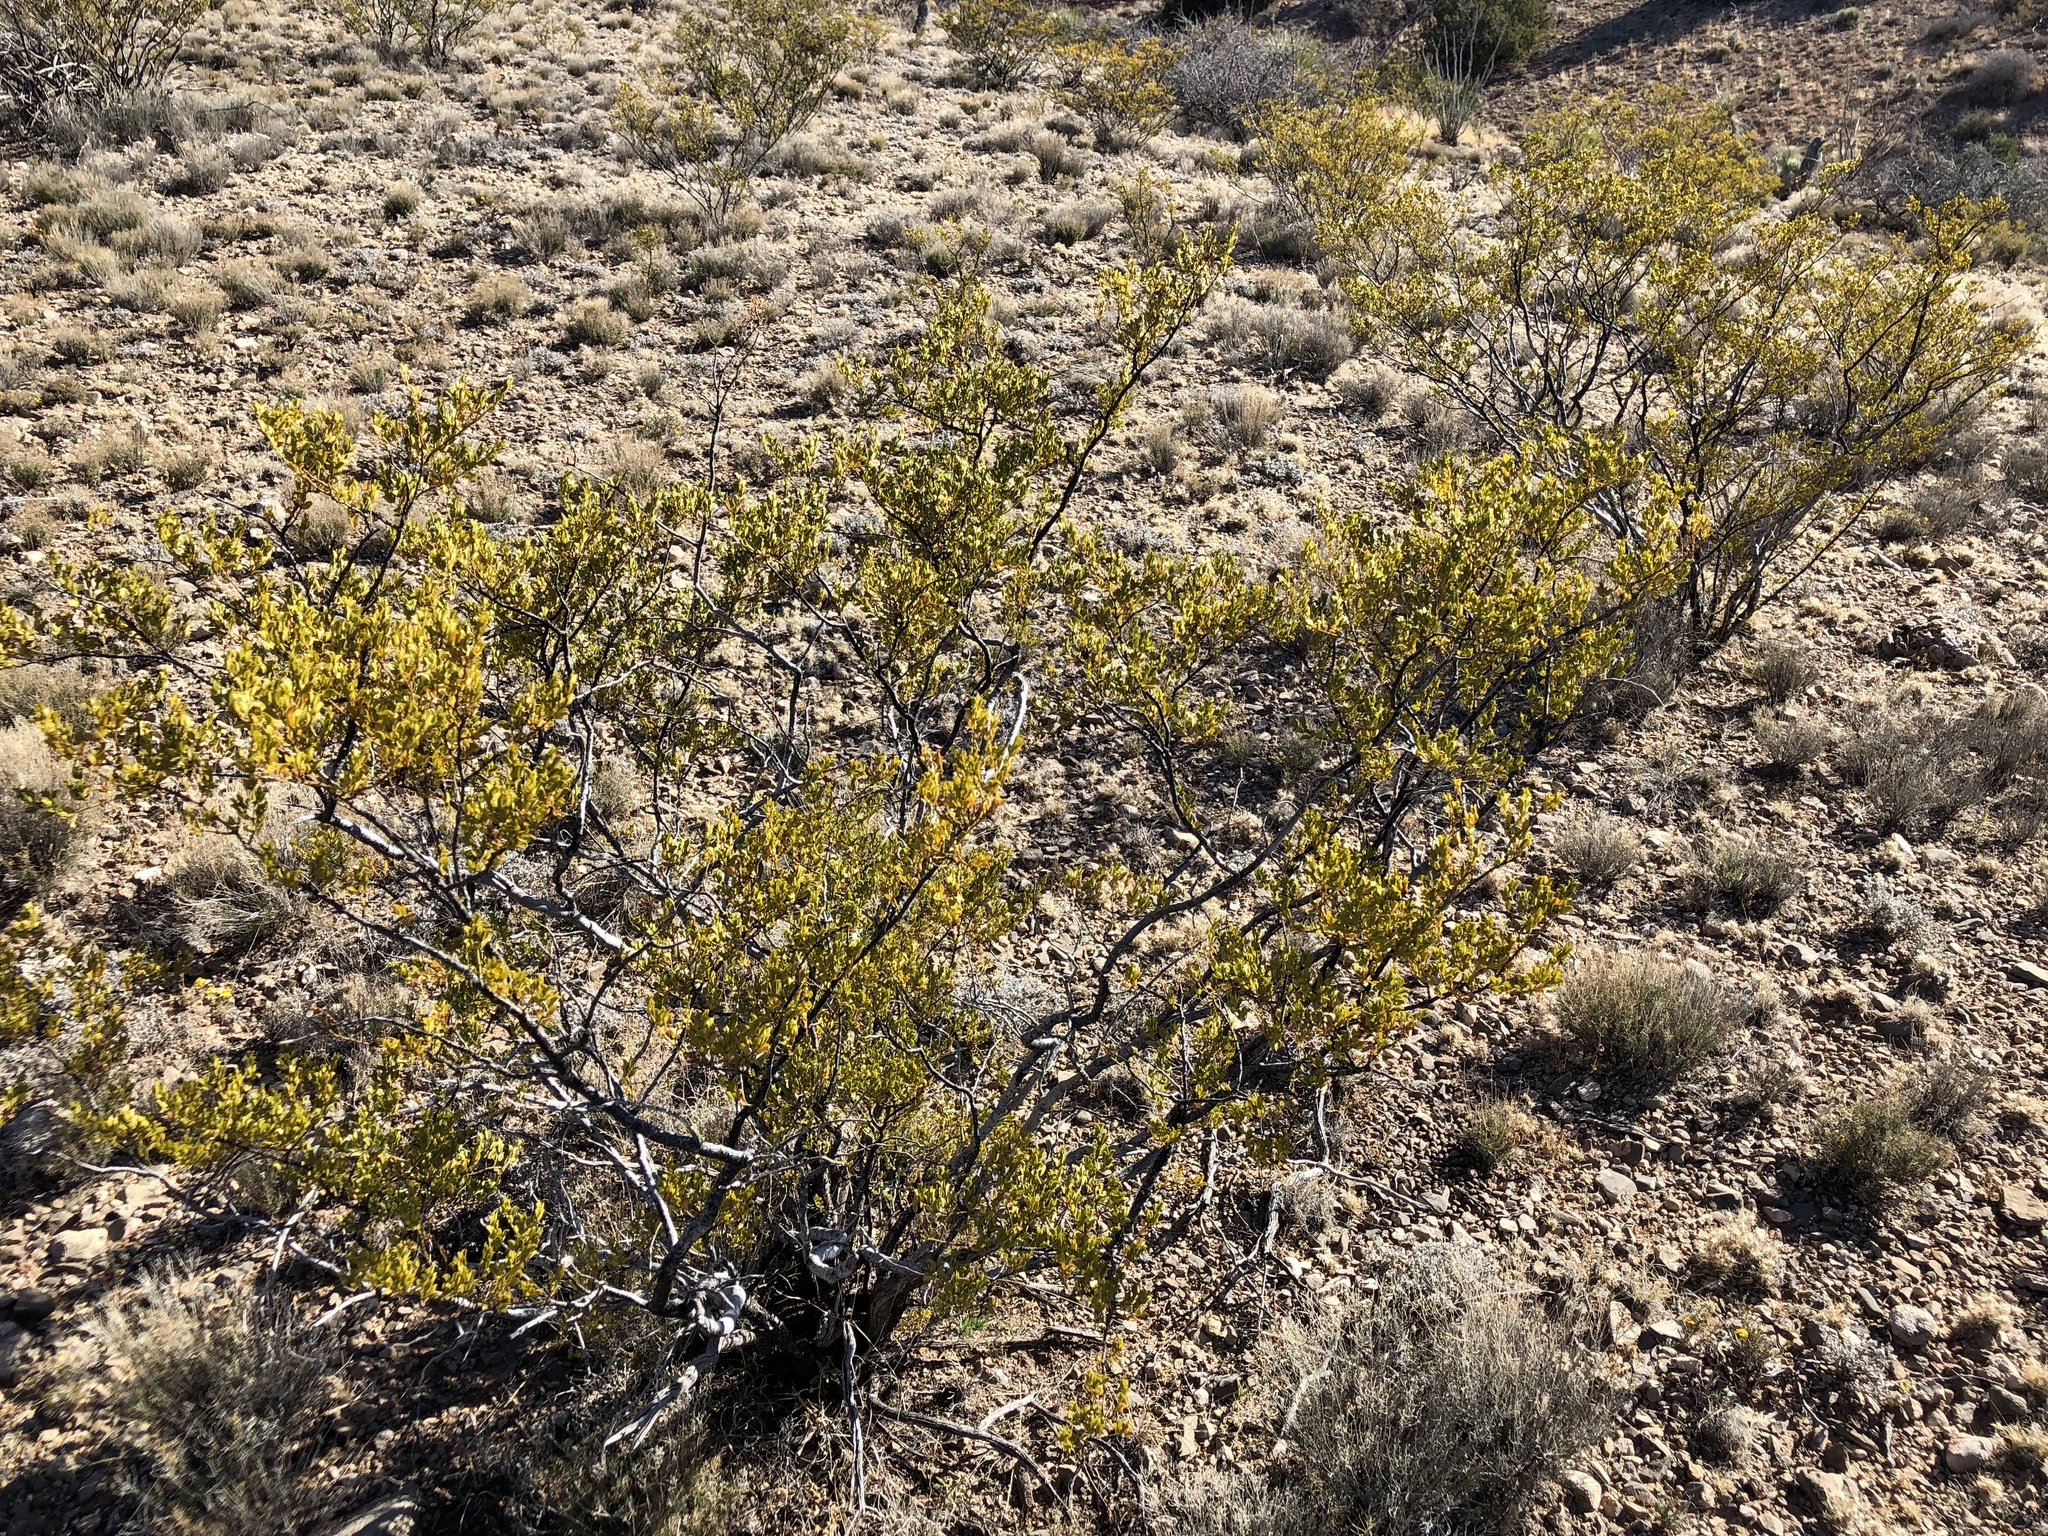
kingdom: Plantae
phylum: Tracheophyta
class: Magnoliopsida
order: Zygophyllales
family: Zygophyllaceae
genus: Larrea
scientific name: Larrea tridentata
